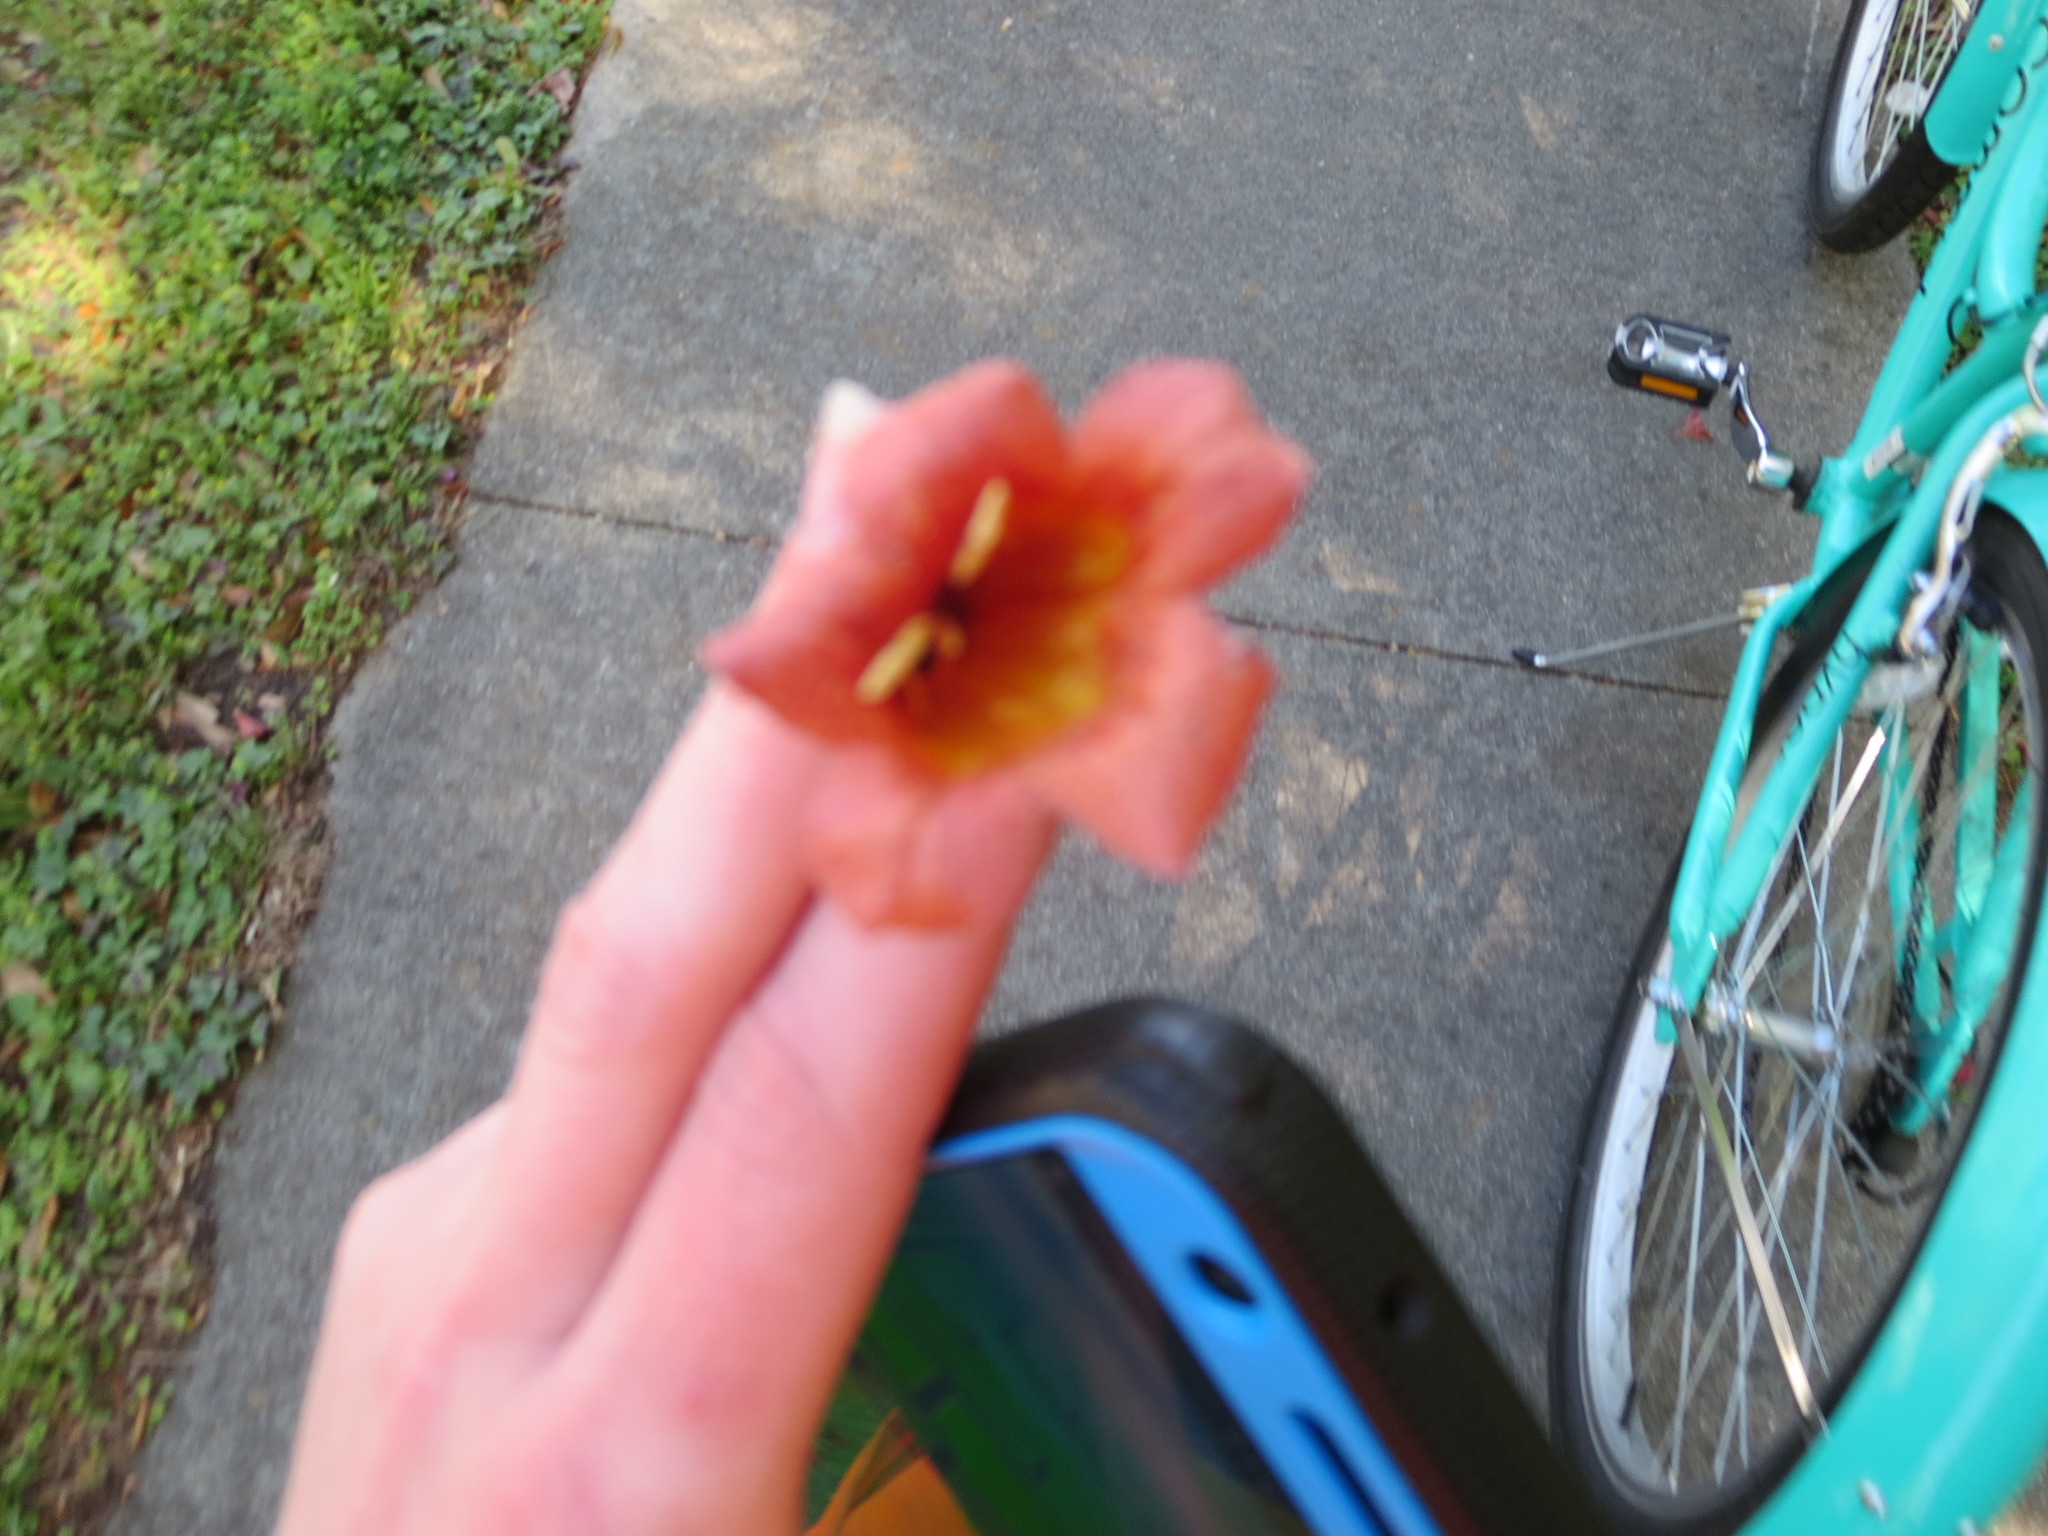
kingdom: Plantae
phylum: Tracheophyta
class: Magnoliopsida
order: Lamiales
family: Bignoniaceae
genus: Bignonia
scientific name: Bignonia capreolata
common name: Crossvine
